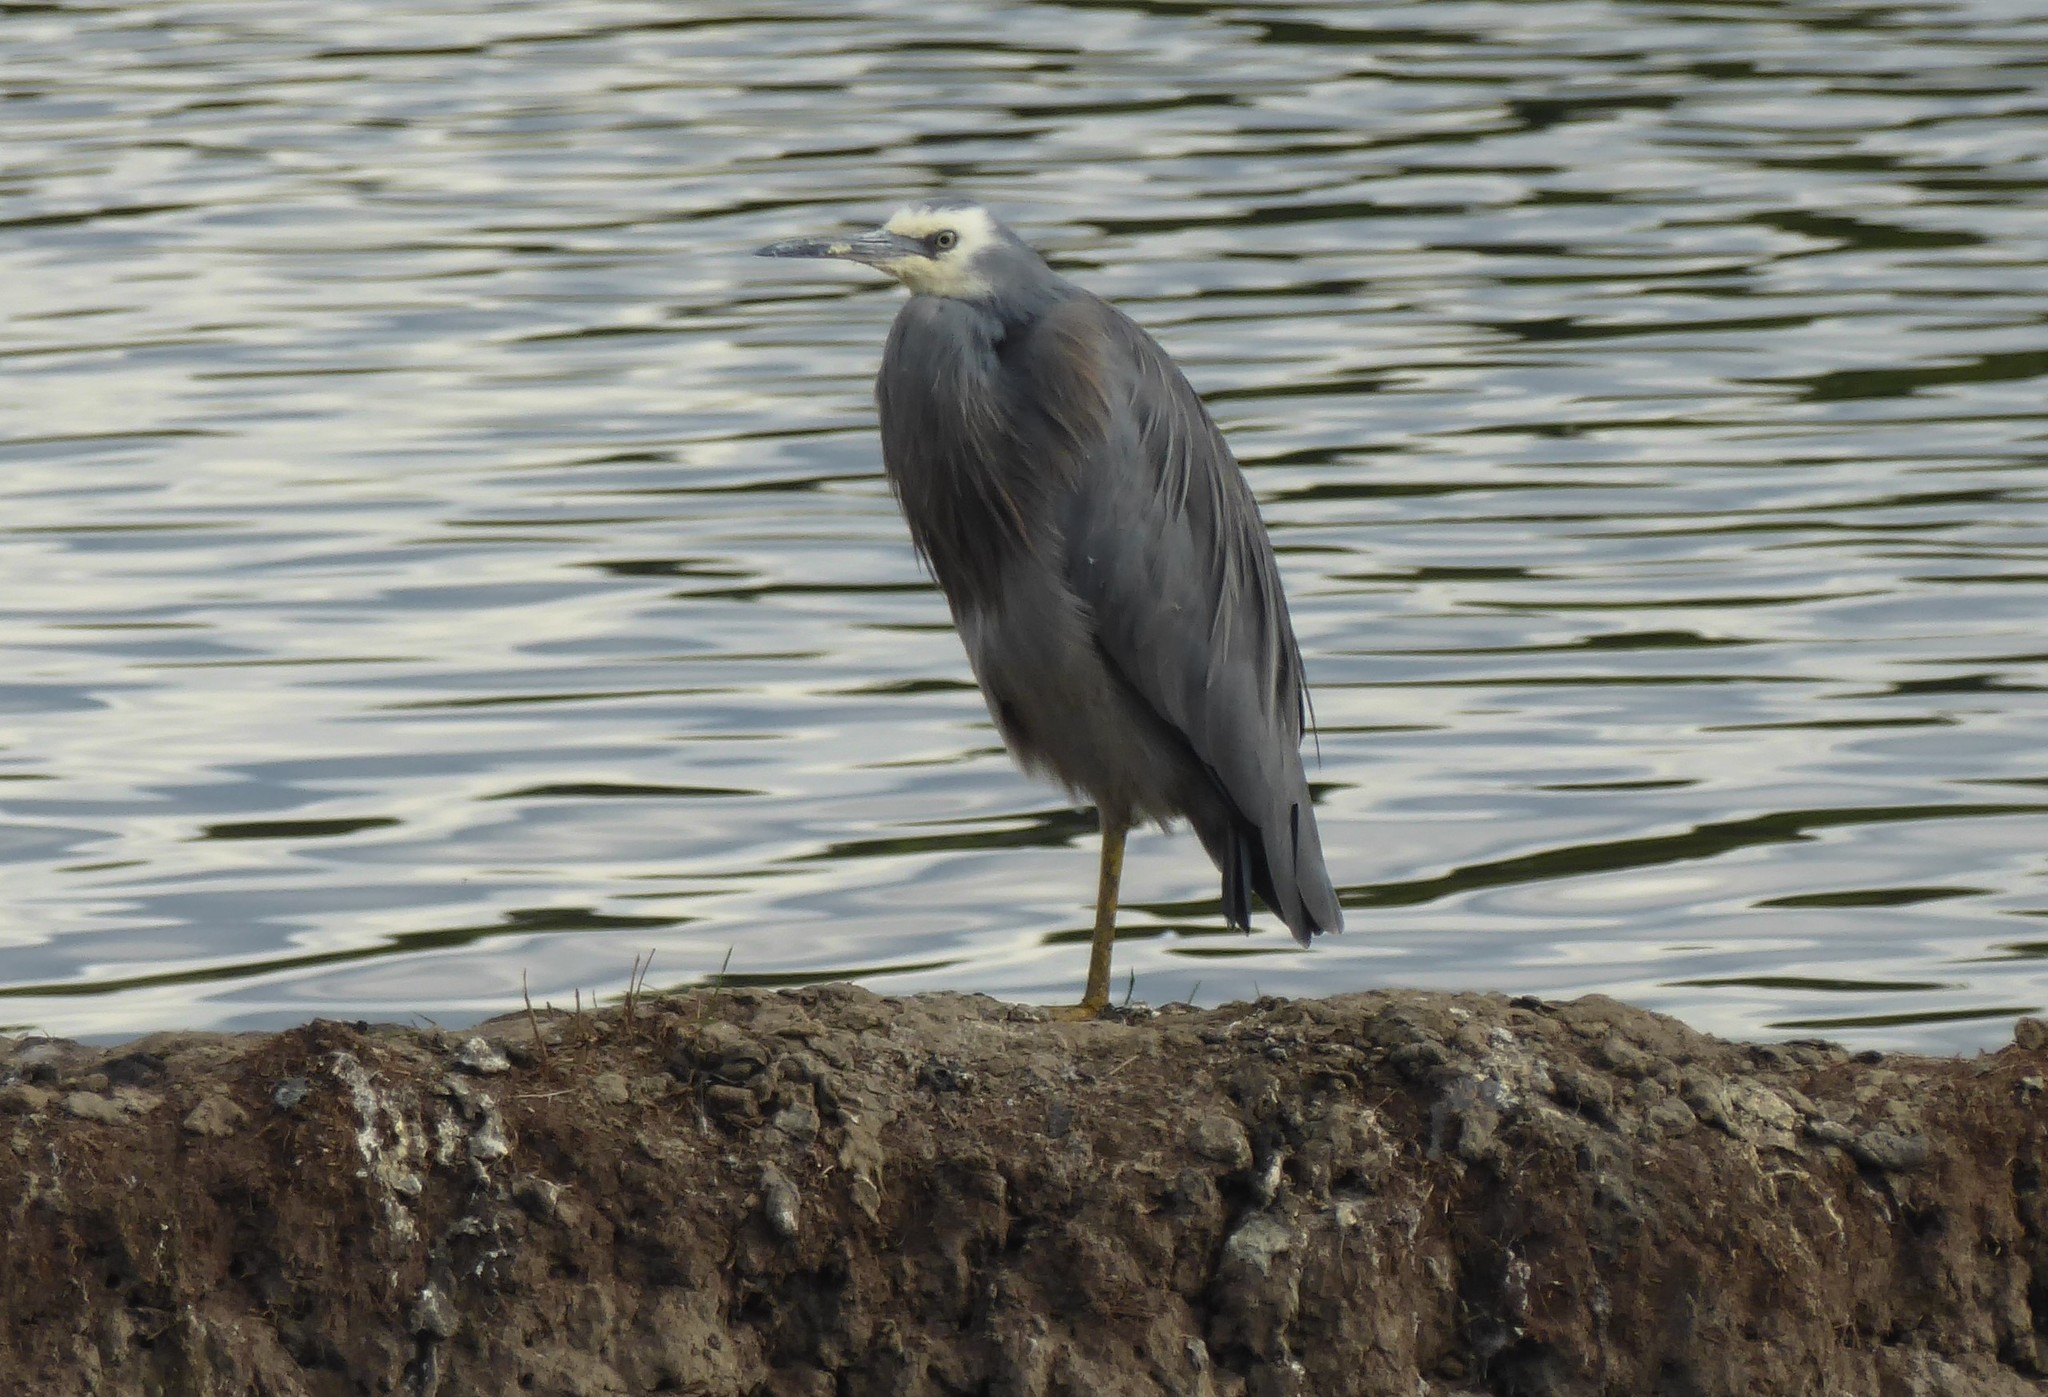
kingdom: Animalia
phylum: Chordata
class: Aves
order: Pelecaniformes
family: Ardeidae
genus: Egretta
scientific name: Egretta novaehollandiae
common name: White-faced heron
